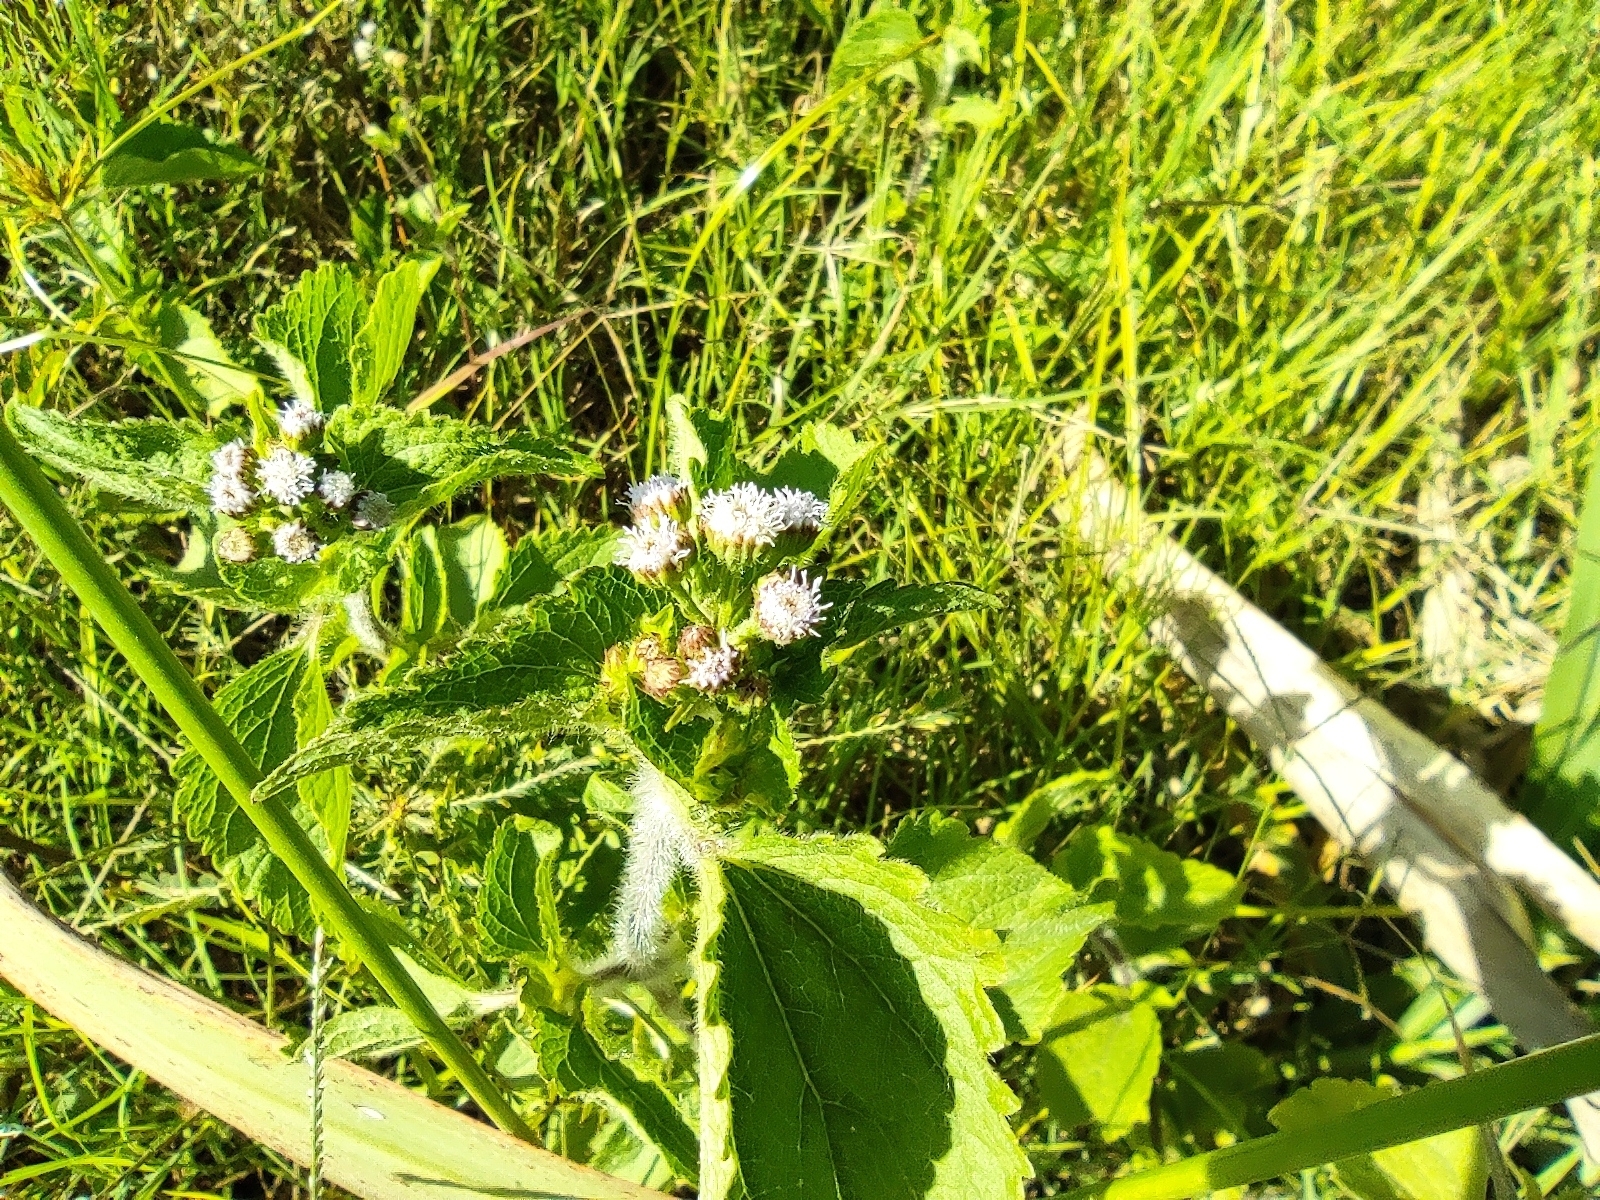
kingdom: Plantae
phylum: Tracheophyta
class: Magnoliopsida
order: Asterales
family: Asteraceae
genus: Ageratum
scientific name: Ageratum conyzoides
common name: Tropical whiteweed
